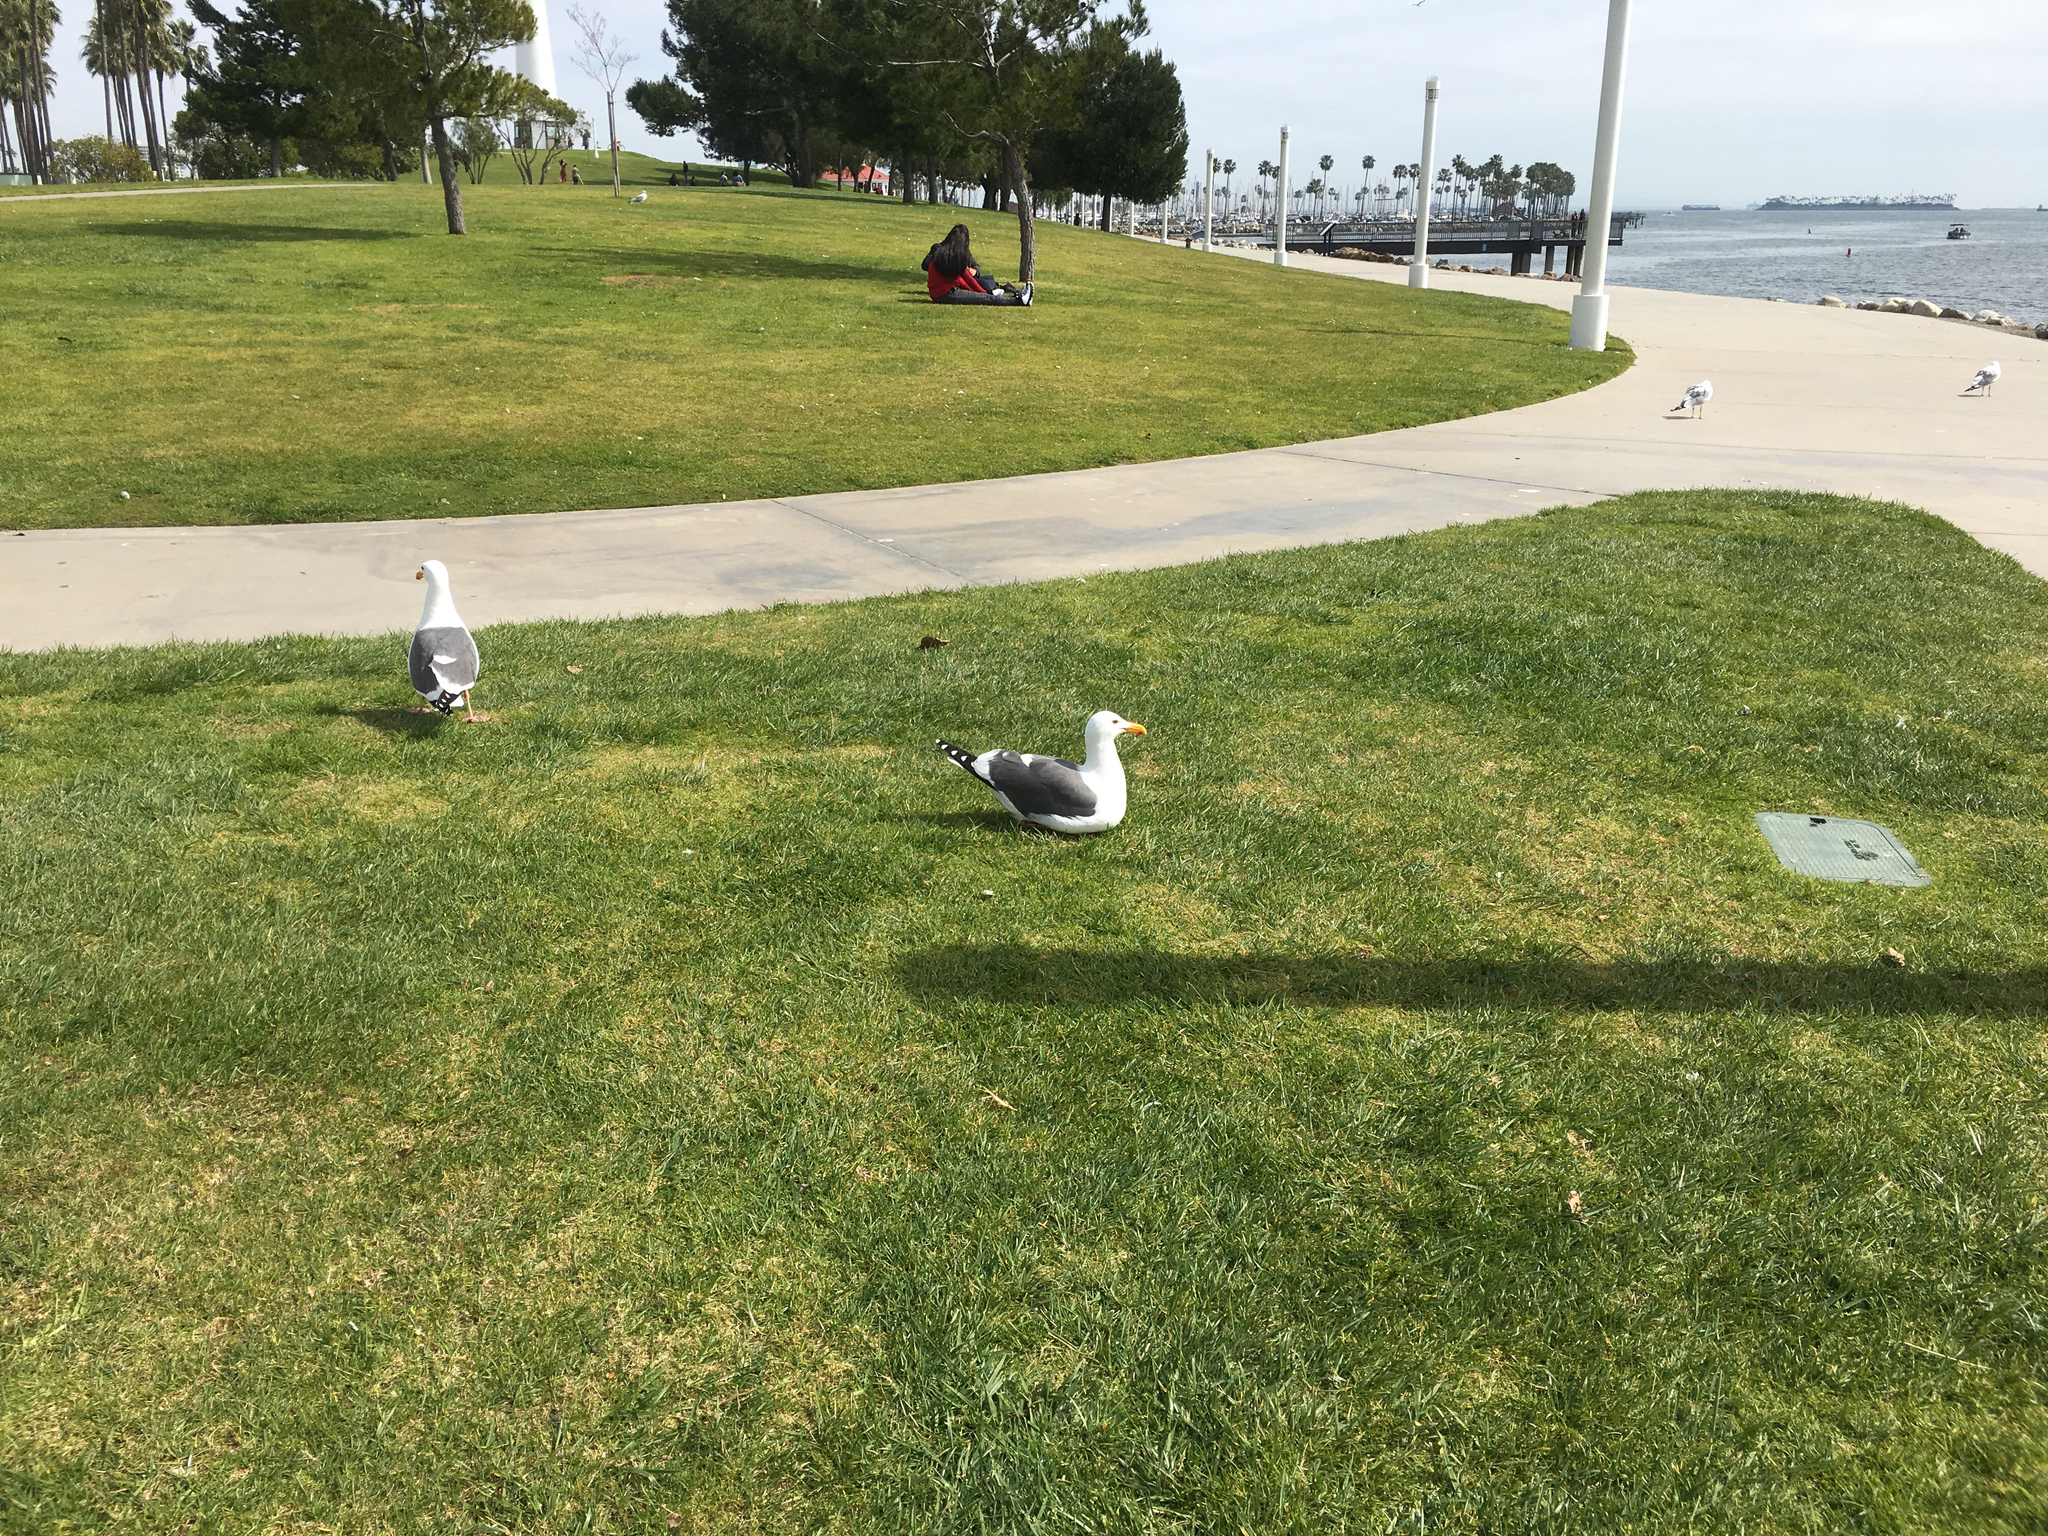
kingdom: Animalia
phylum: Chordata
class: Aves
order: Charadriiformes
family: Laridae
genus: Larus
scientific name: Larus occidentalis
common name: Western gull
